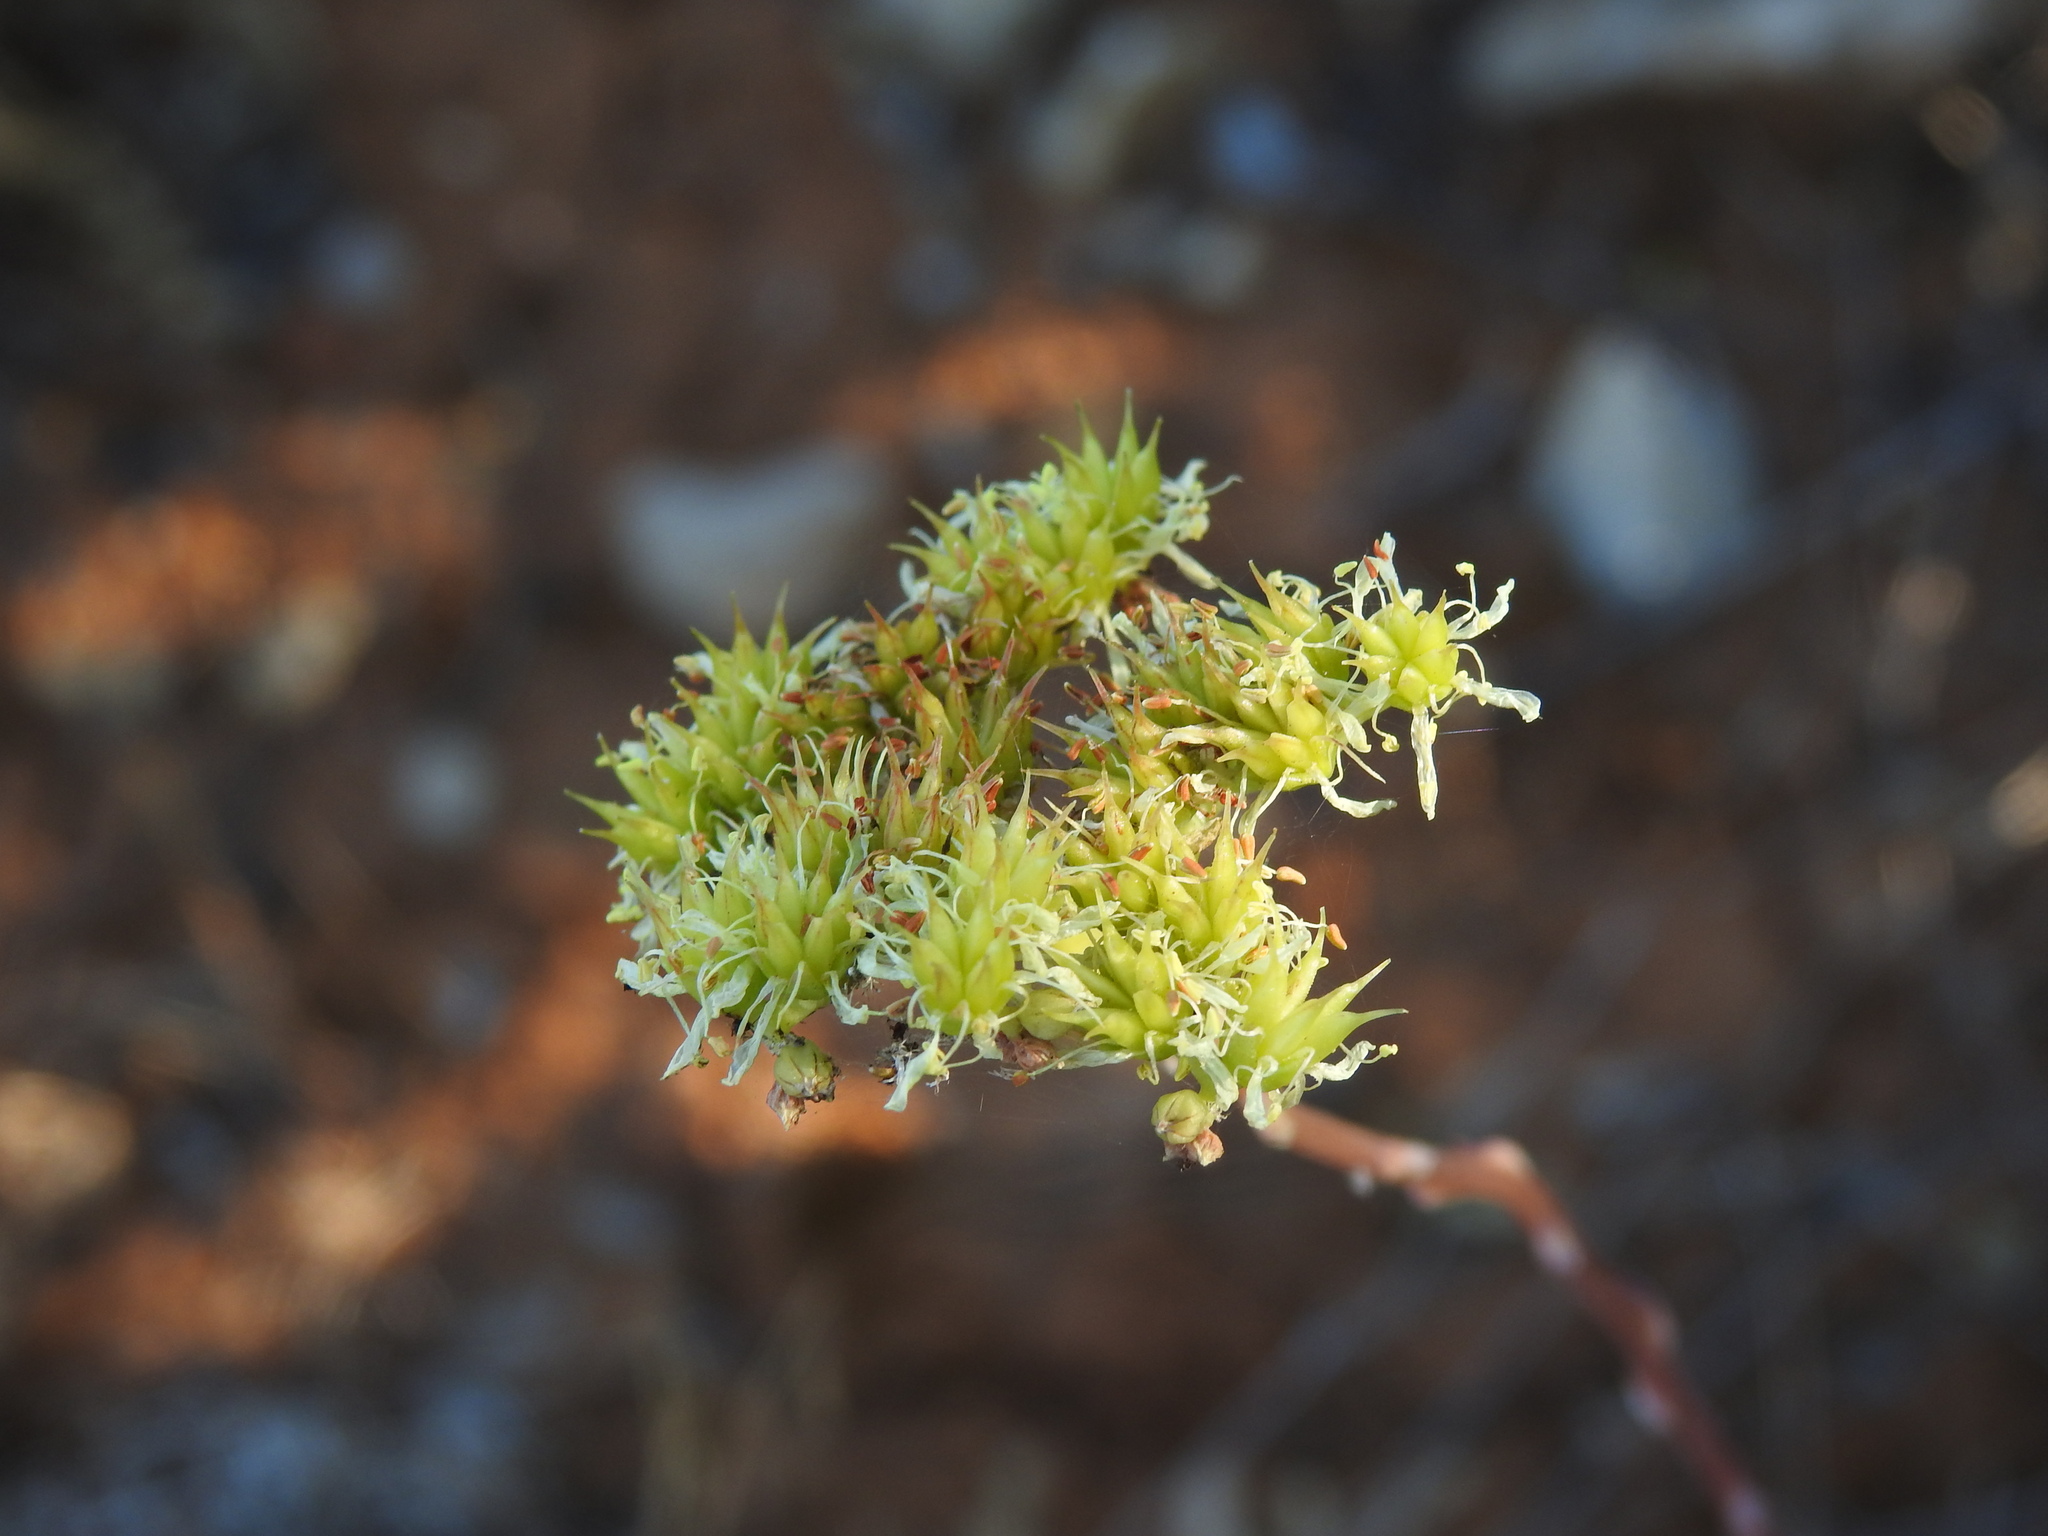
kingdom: Plantae
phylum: Tracheophyta
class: Magnoliopsida
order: Saxifragales
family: Crassulaceae
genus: Petrosedum
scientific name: Petrosedum sediforme
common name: Pale stonecrop
